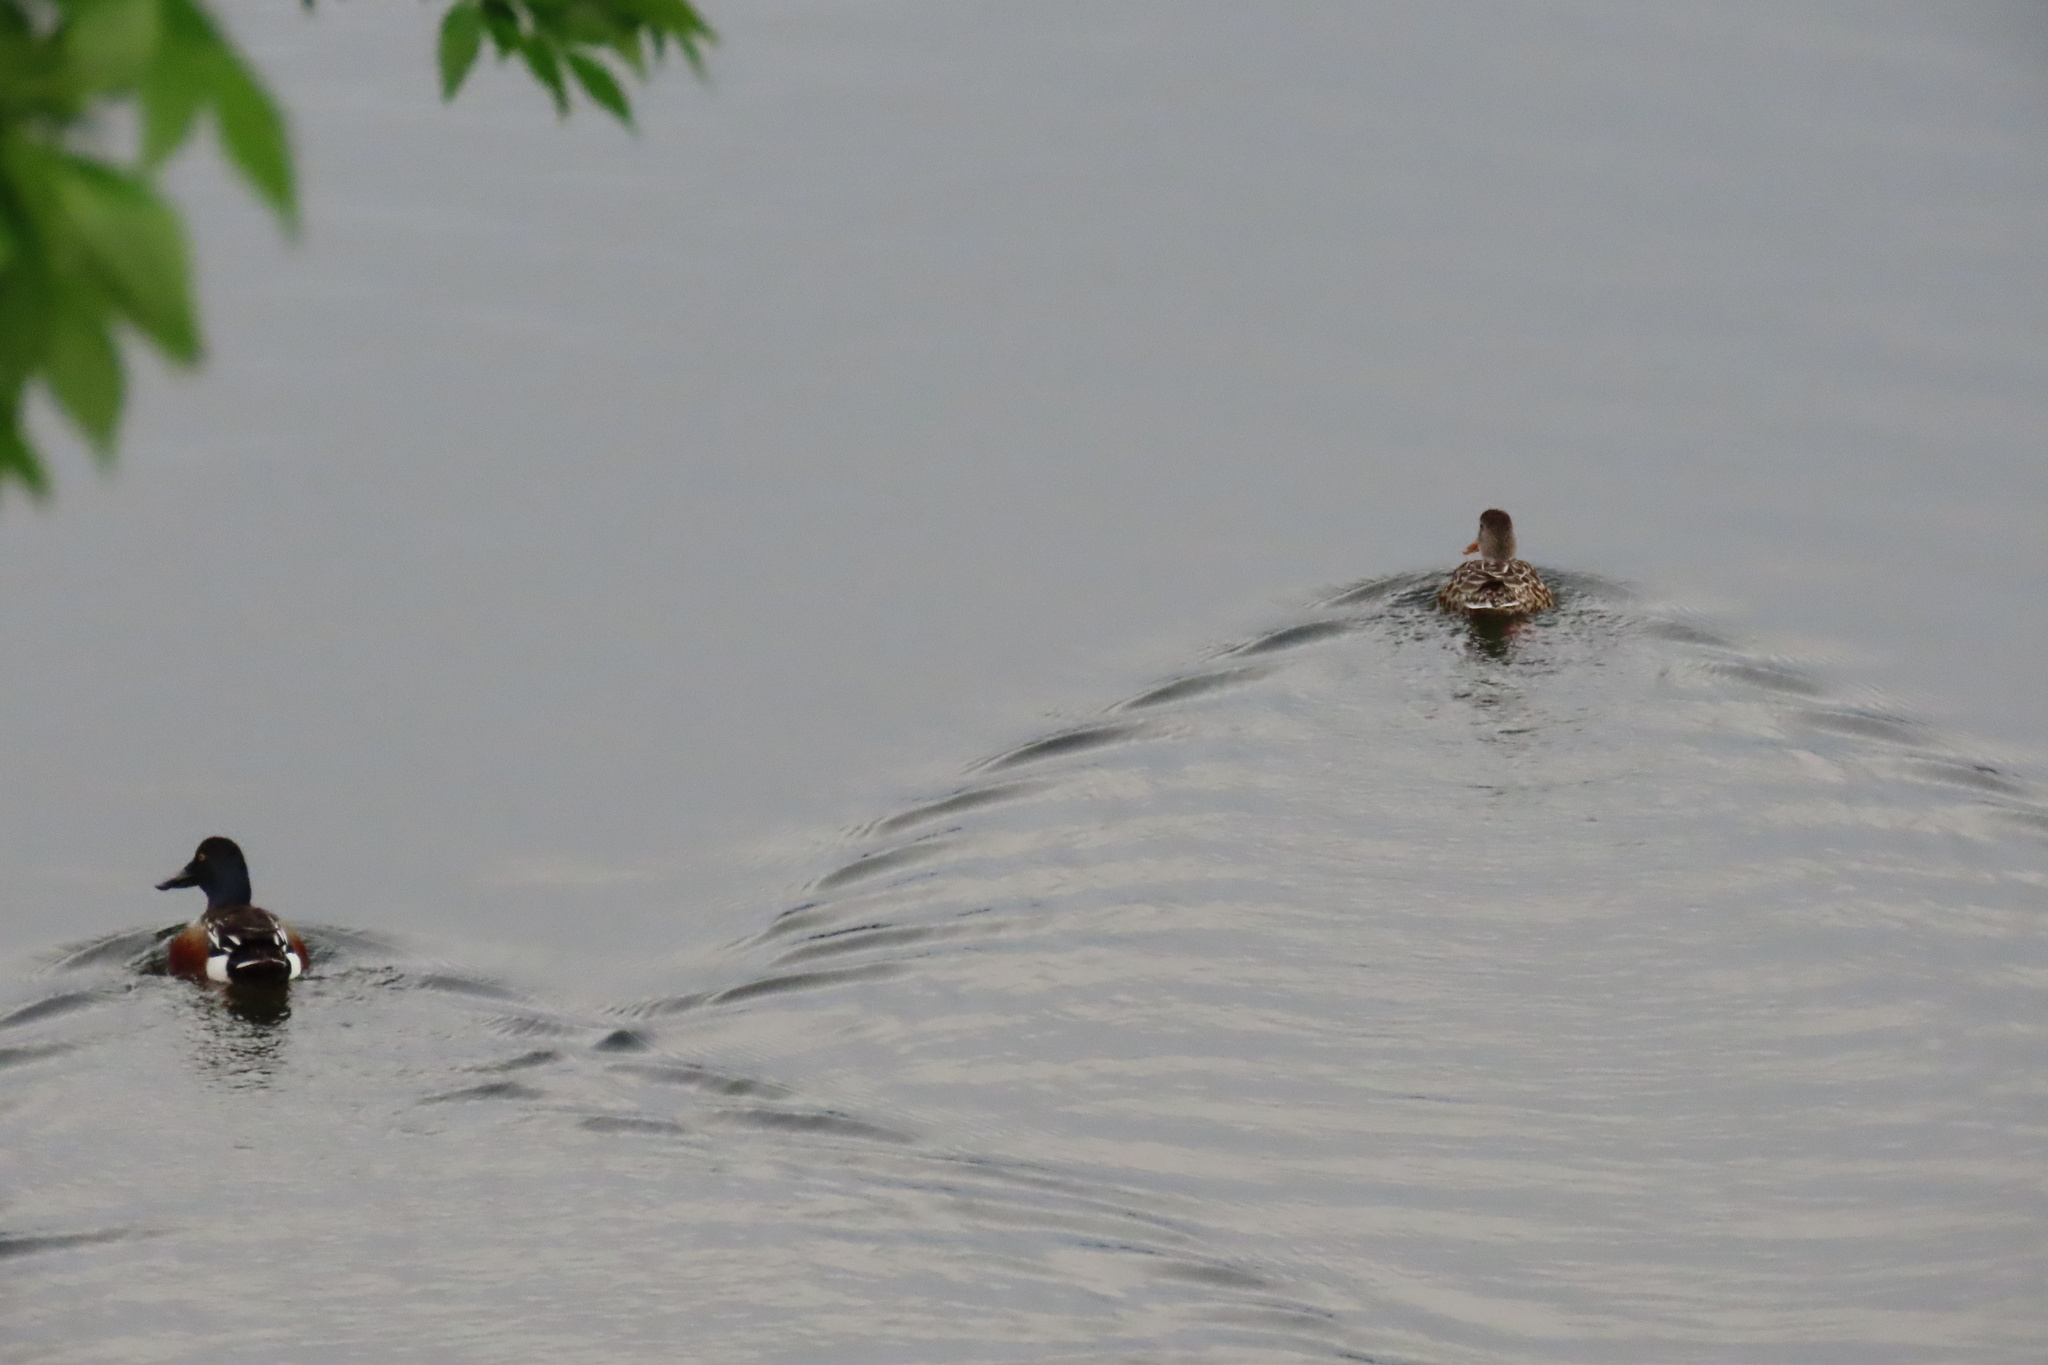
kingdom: Animalia
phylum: Chordata
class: Aves
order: Anseriformes
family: Anatidae
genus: Spatula
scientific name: Spatula clypeata
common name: Northern shoveler
